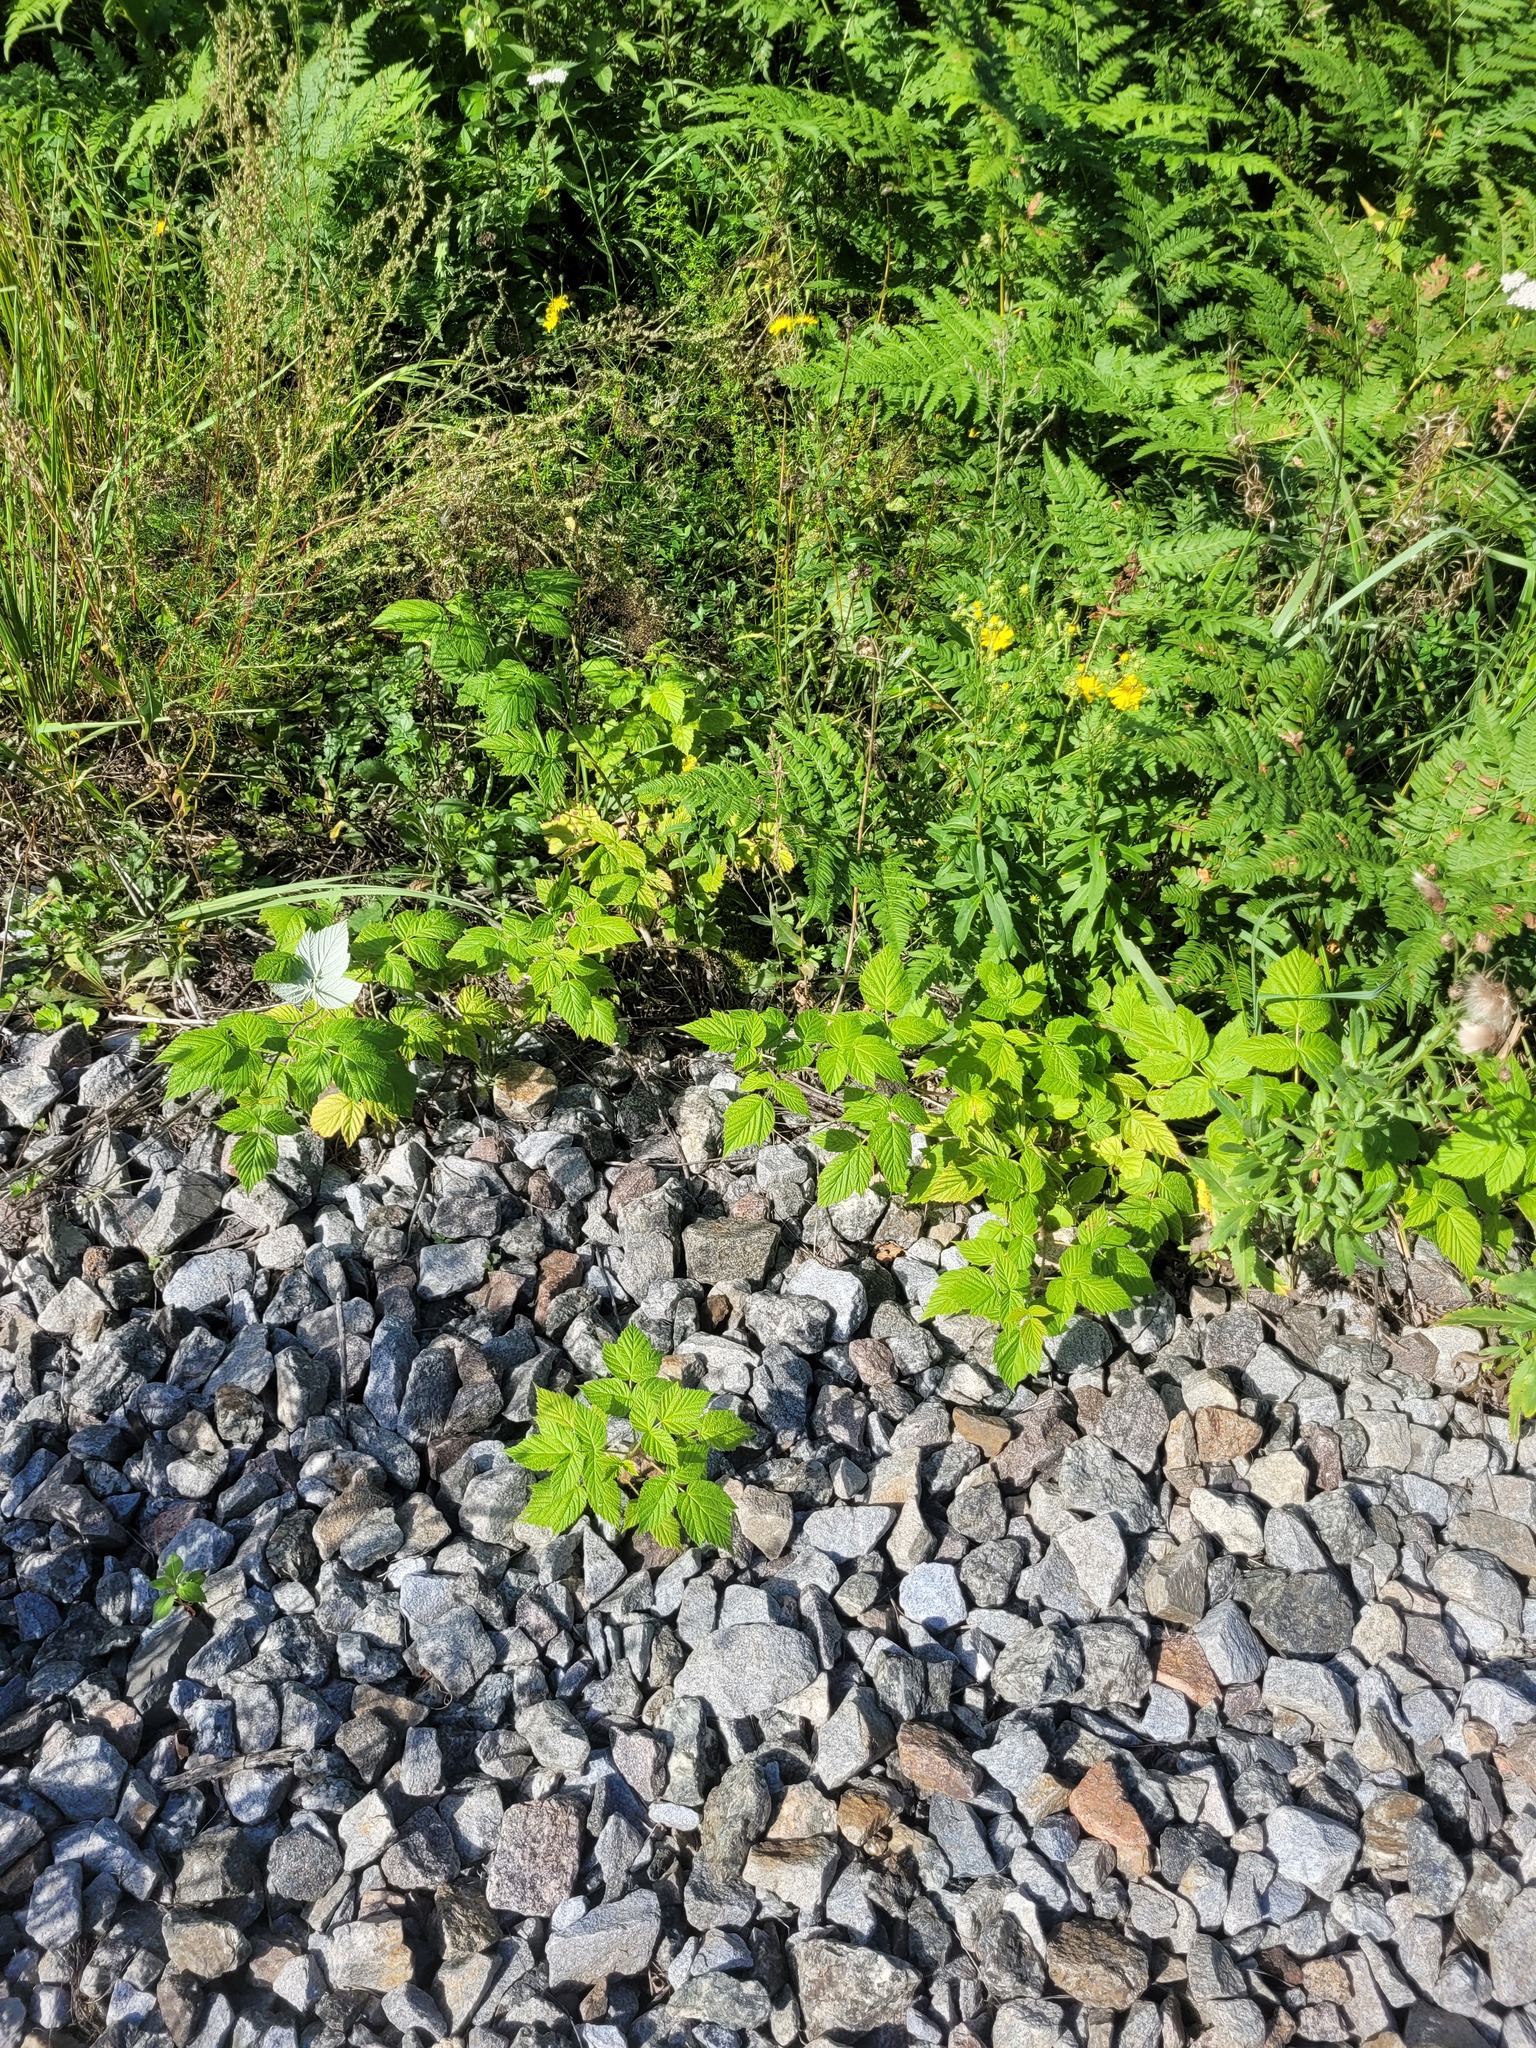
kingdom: Plantae
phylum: Tracheophyta
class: Magnoliopsida
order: Rosales
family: Rosaceae
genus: Rubus
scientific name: Rubus idaeus
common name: Raspberry
